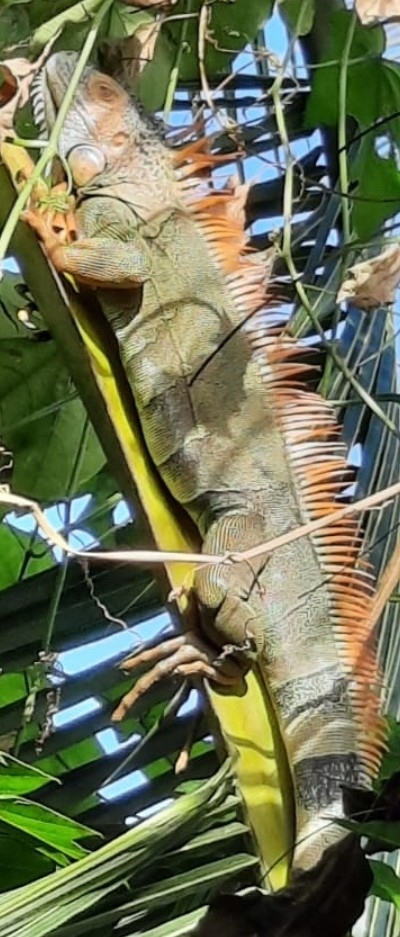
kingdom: Animalia
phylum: Chordata
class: Squamata
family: Iguanidae
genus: Iguana
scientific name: Iguana iguana
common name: Green iguana
